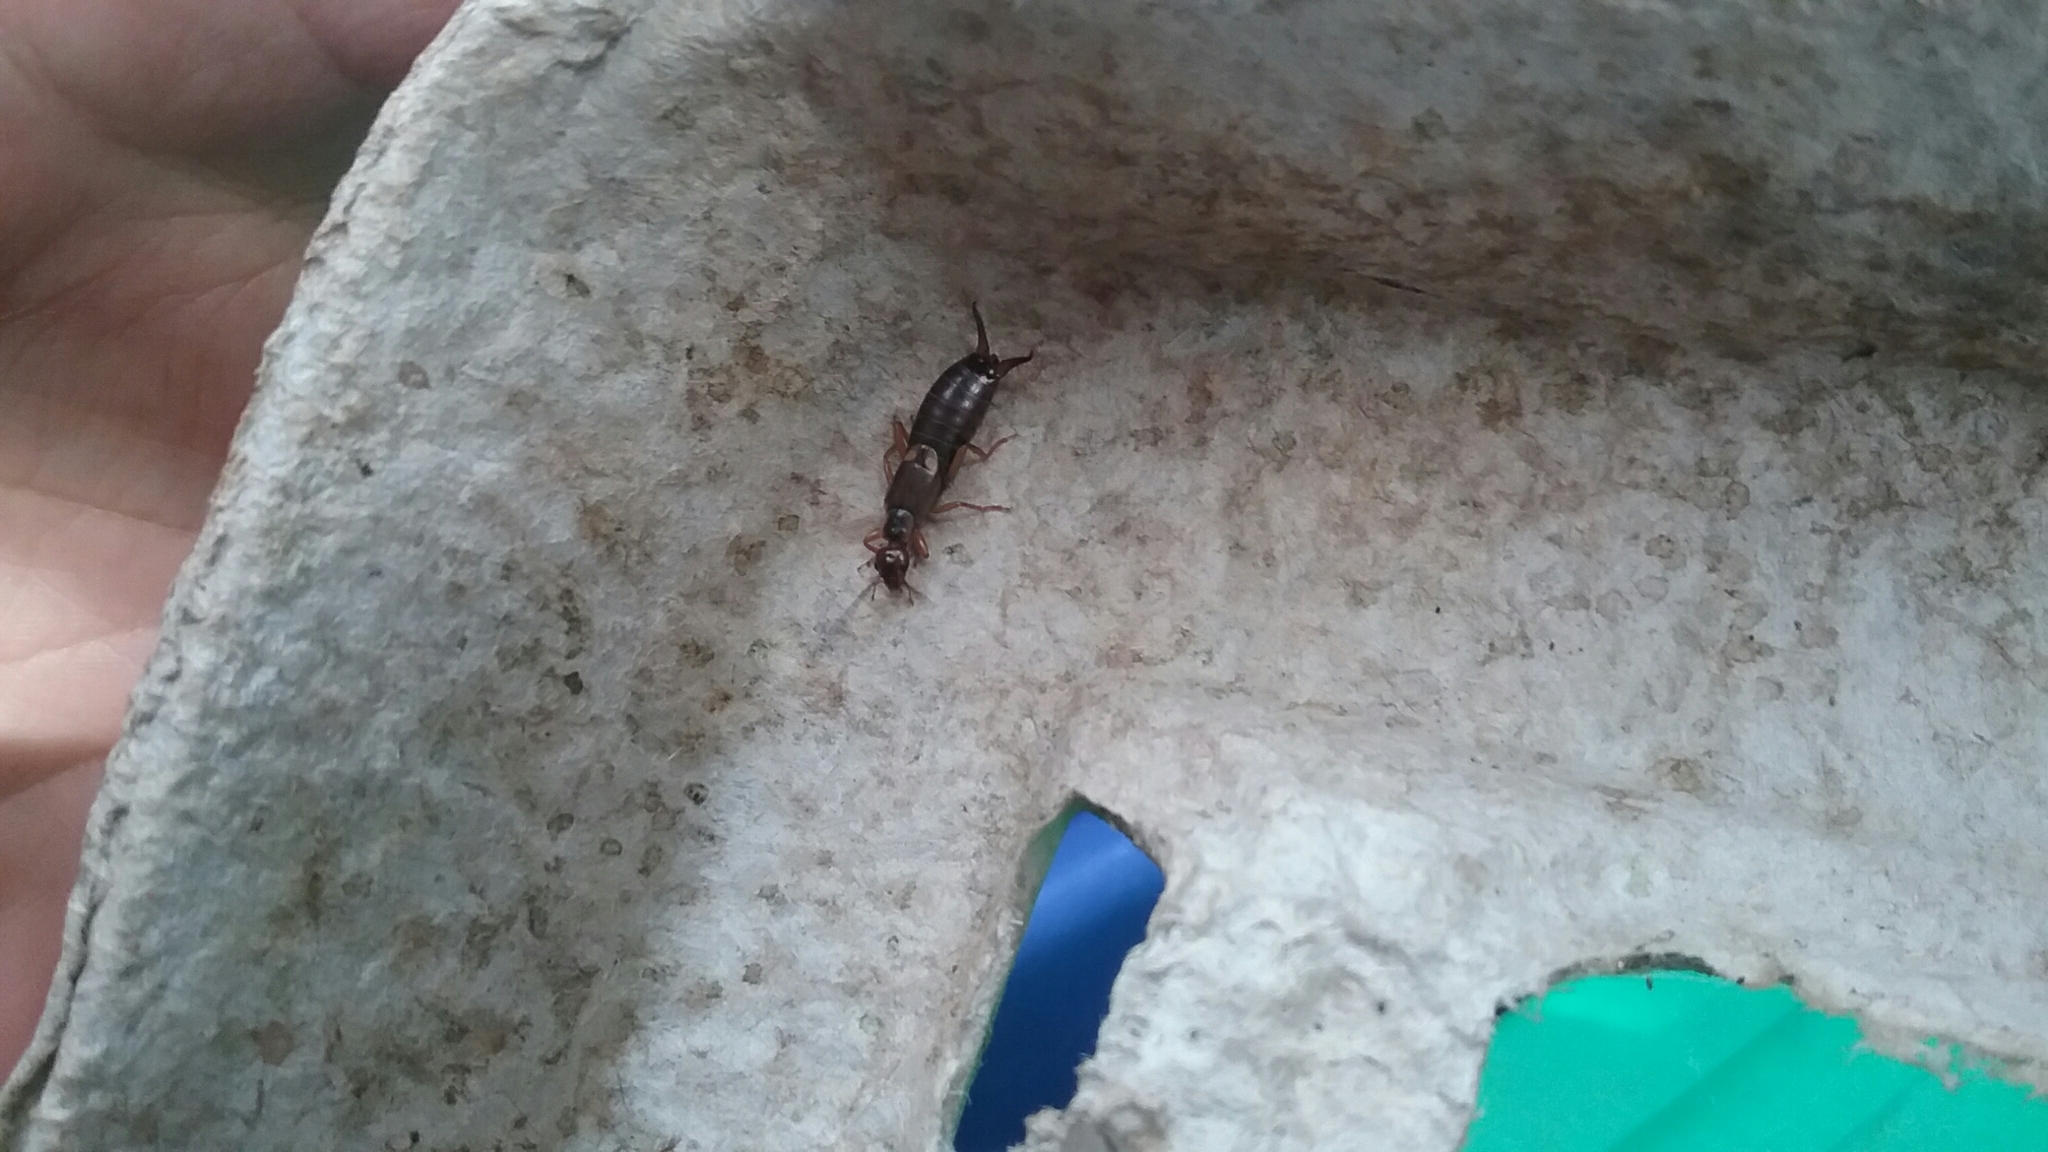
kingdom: Animalia
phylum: Arthropoda
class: Insecta
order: Dermaptera
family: Forficulidae
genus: Forficula
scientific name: Forficula
